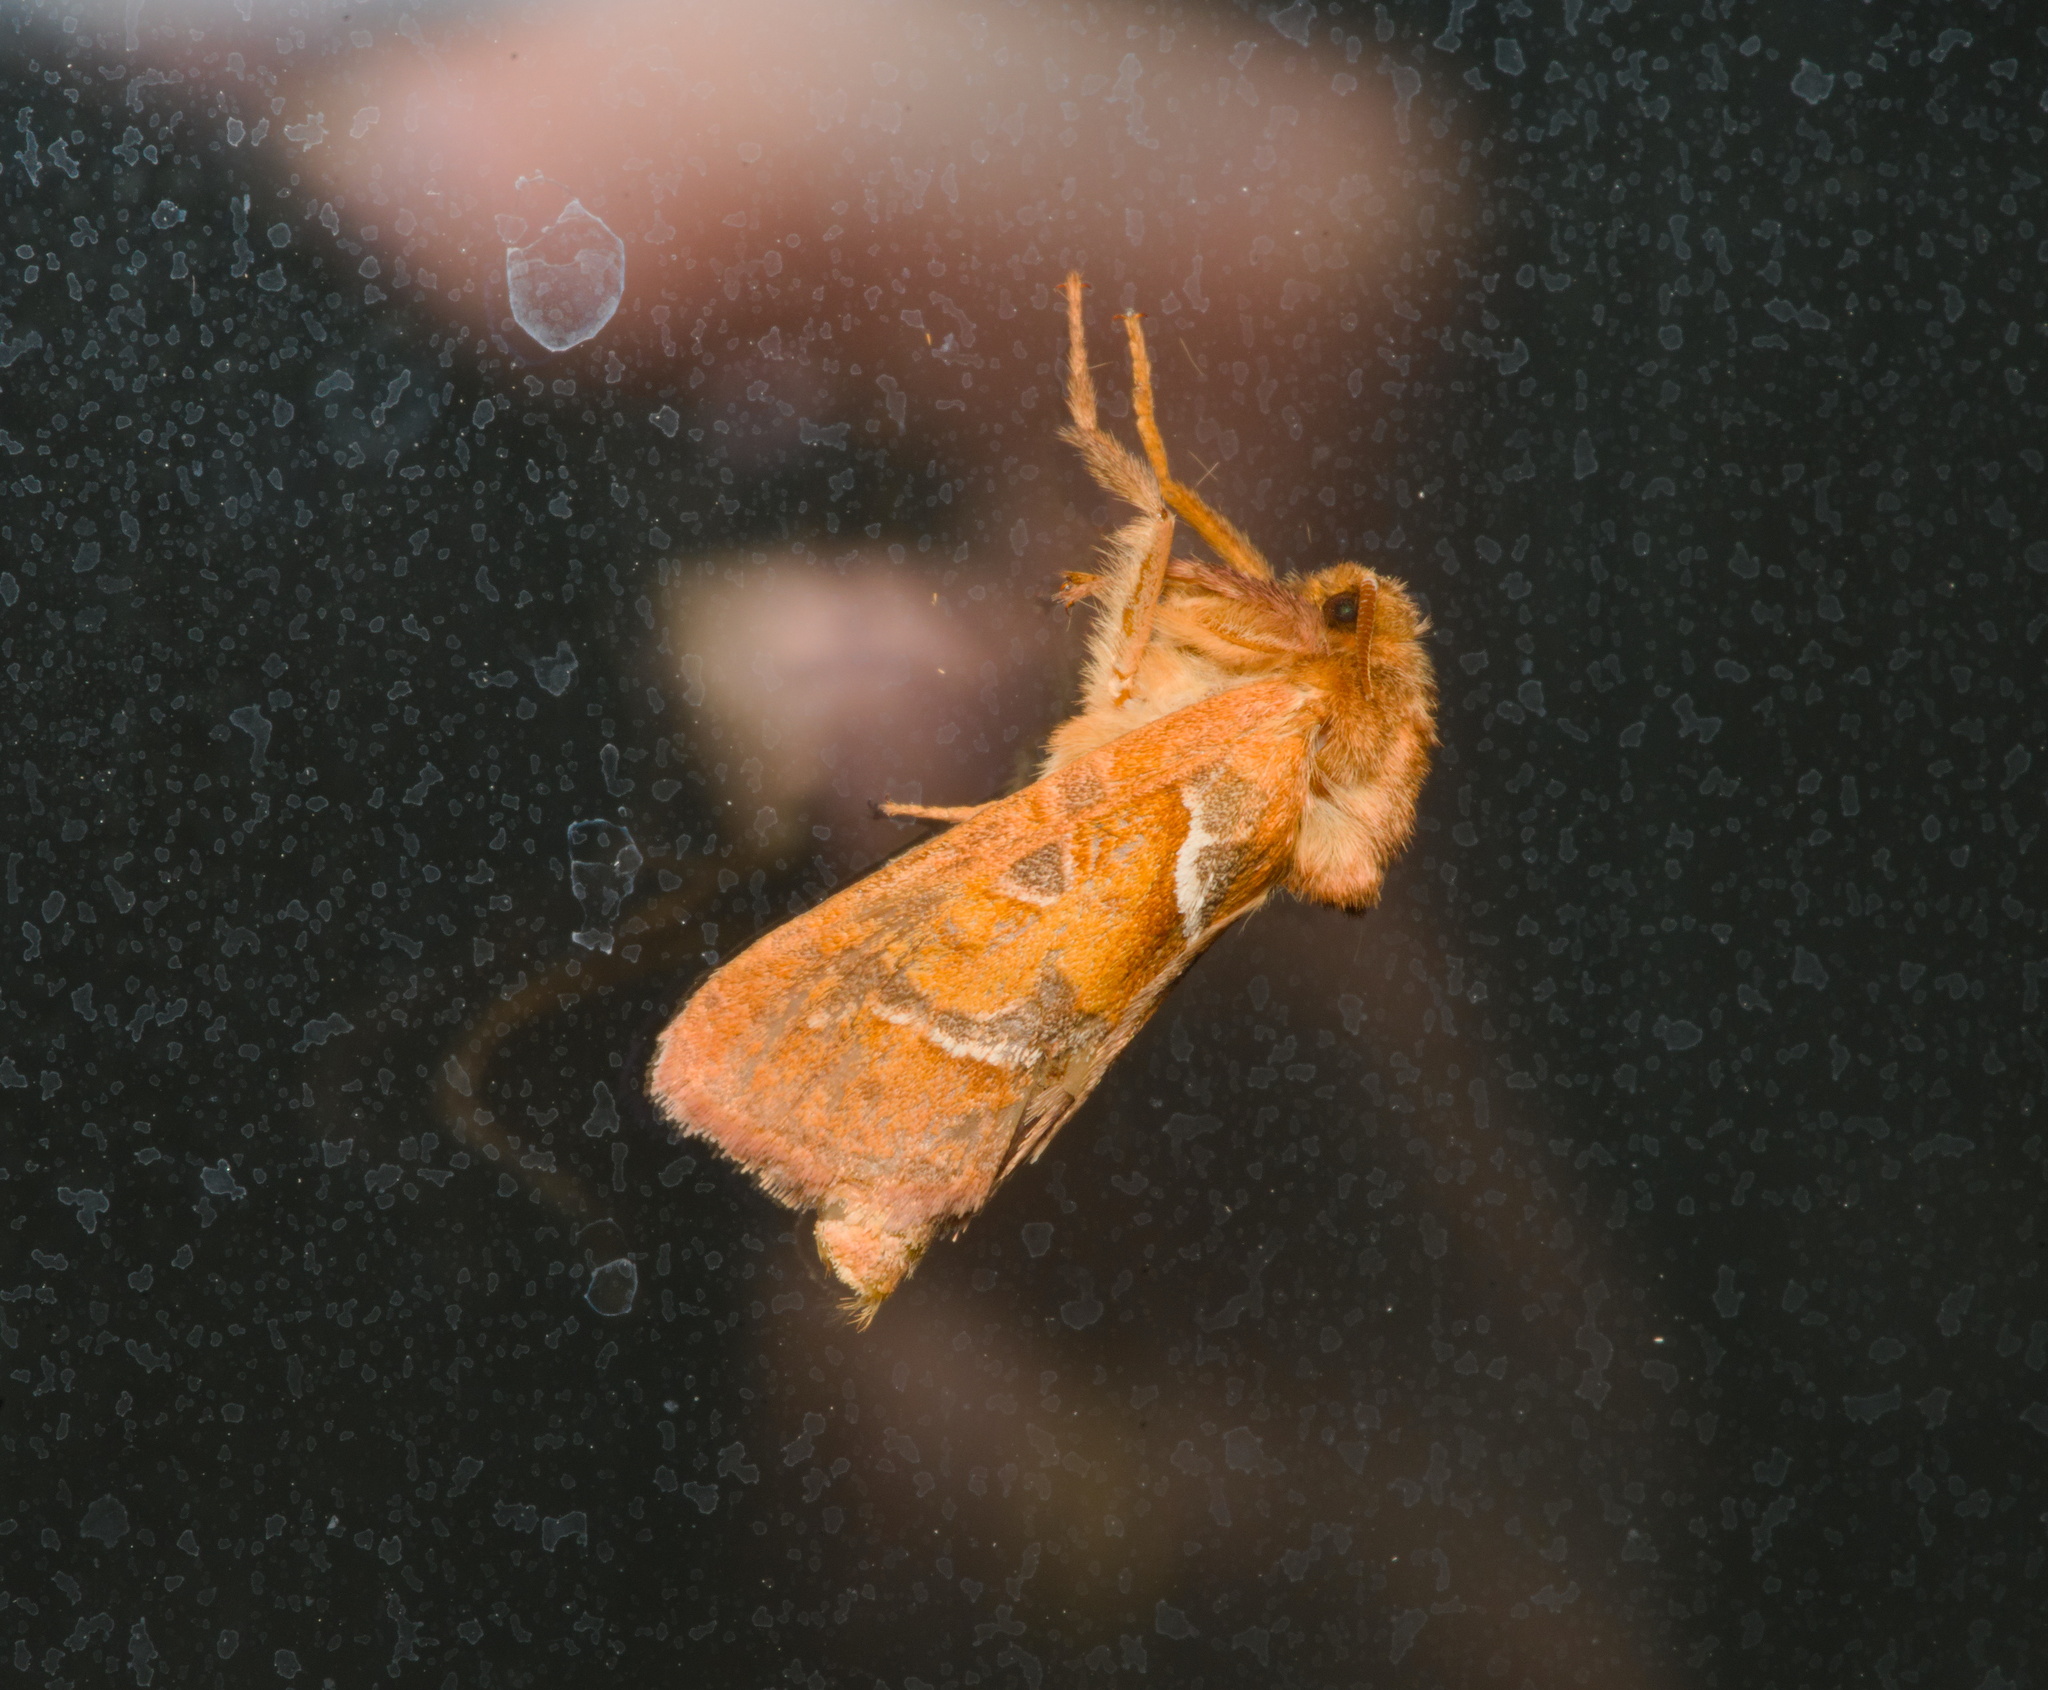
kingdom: Animalia
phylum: Arthropoda
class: Insecta
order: Lepidoptera
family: Hepialidae
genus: Triodia
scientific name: Triodia sylvina
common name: Orange swift
